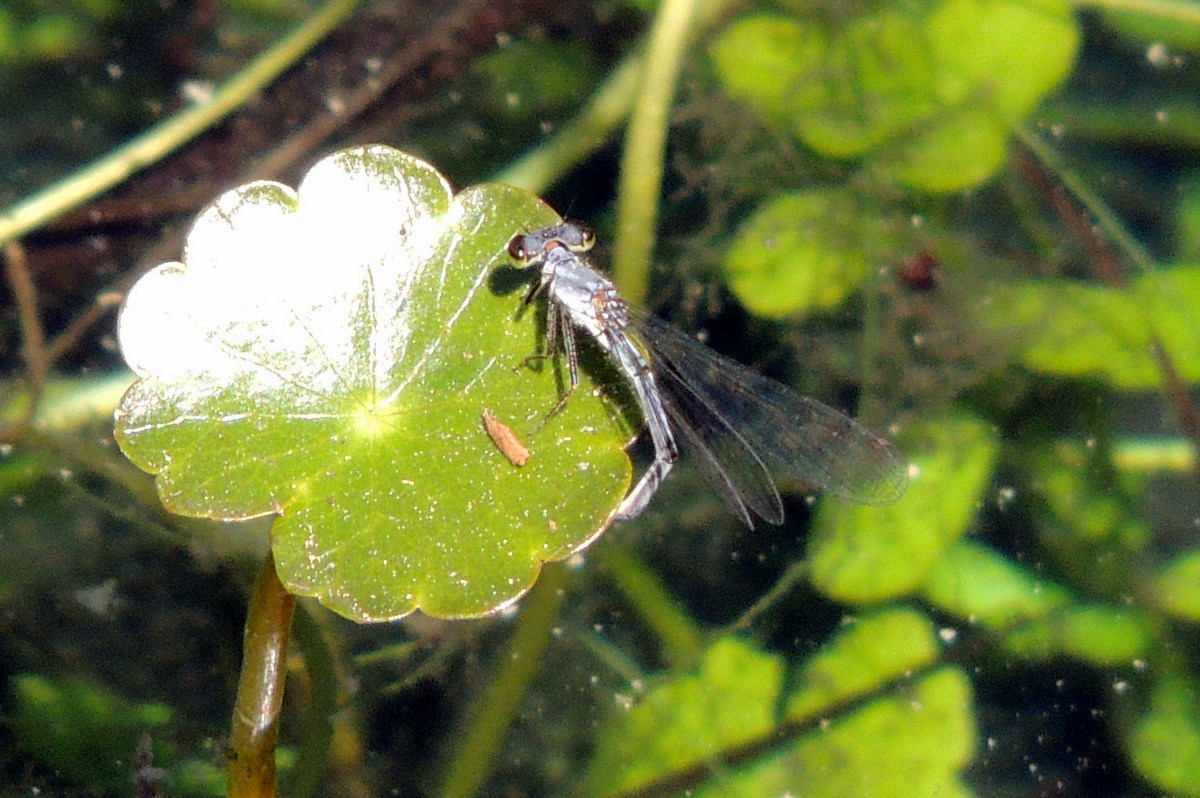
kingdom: Animalia
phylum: Arthropoda
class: Insecta
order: Odonata
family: Coenagrionidae
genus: Ischnura
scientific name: Ischnura posita
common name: Fragile forktail
